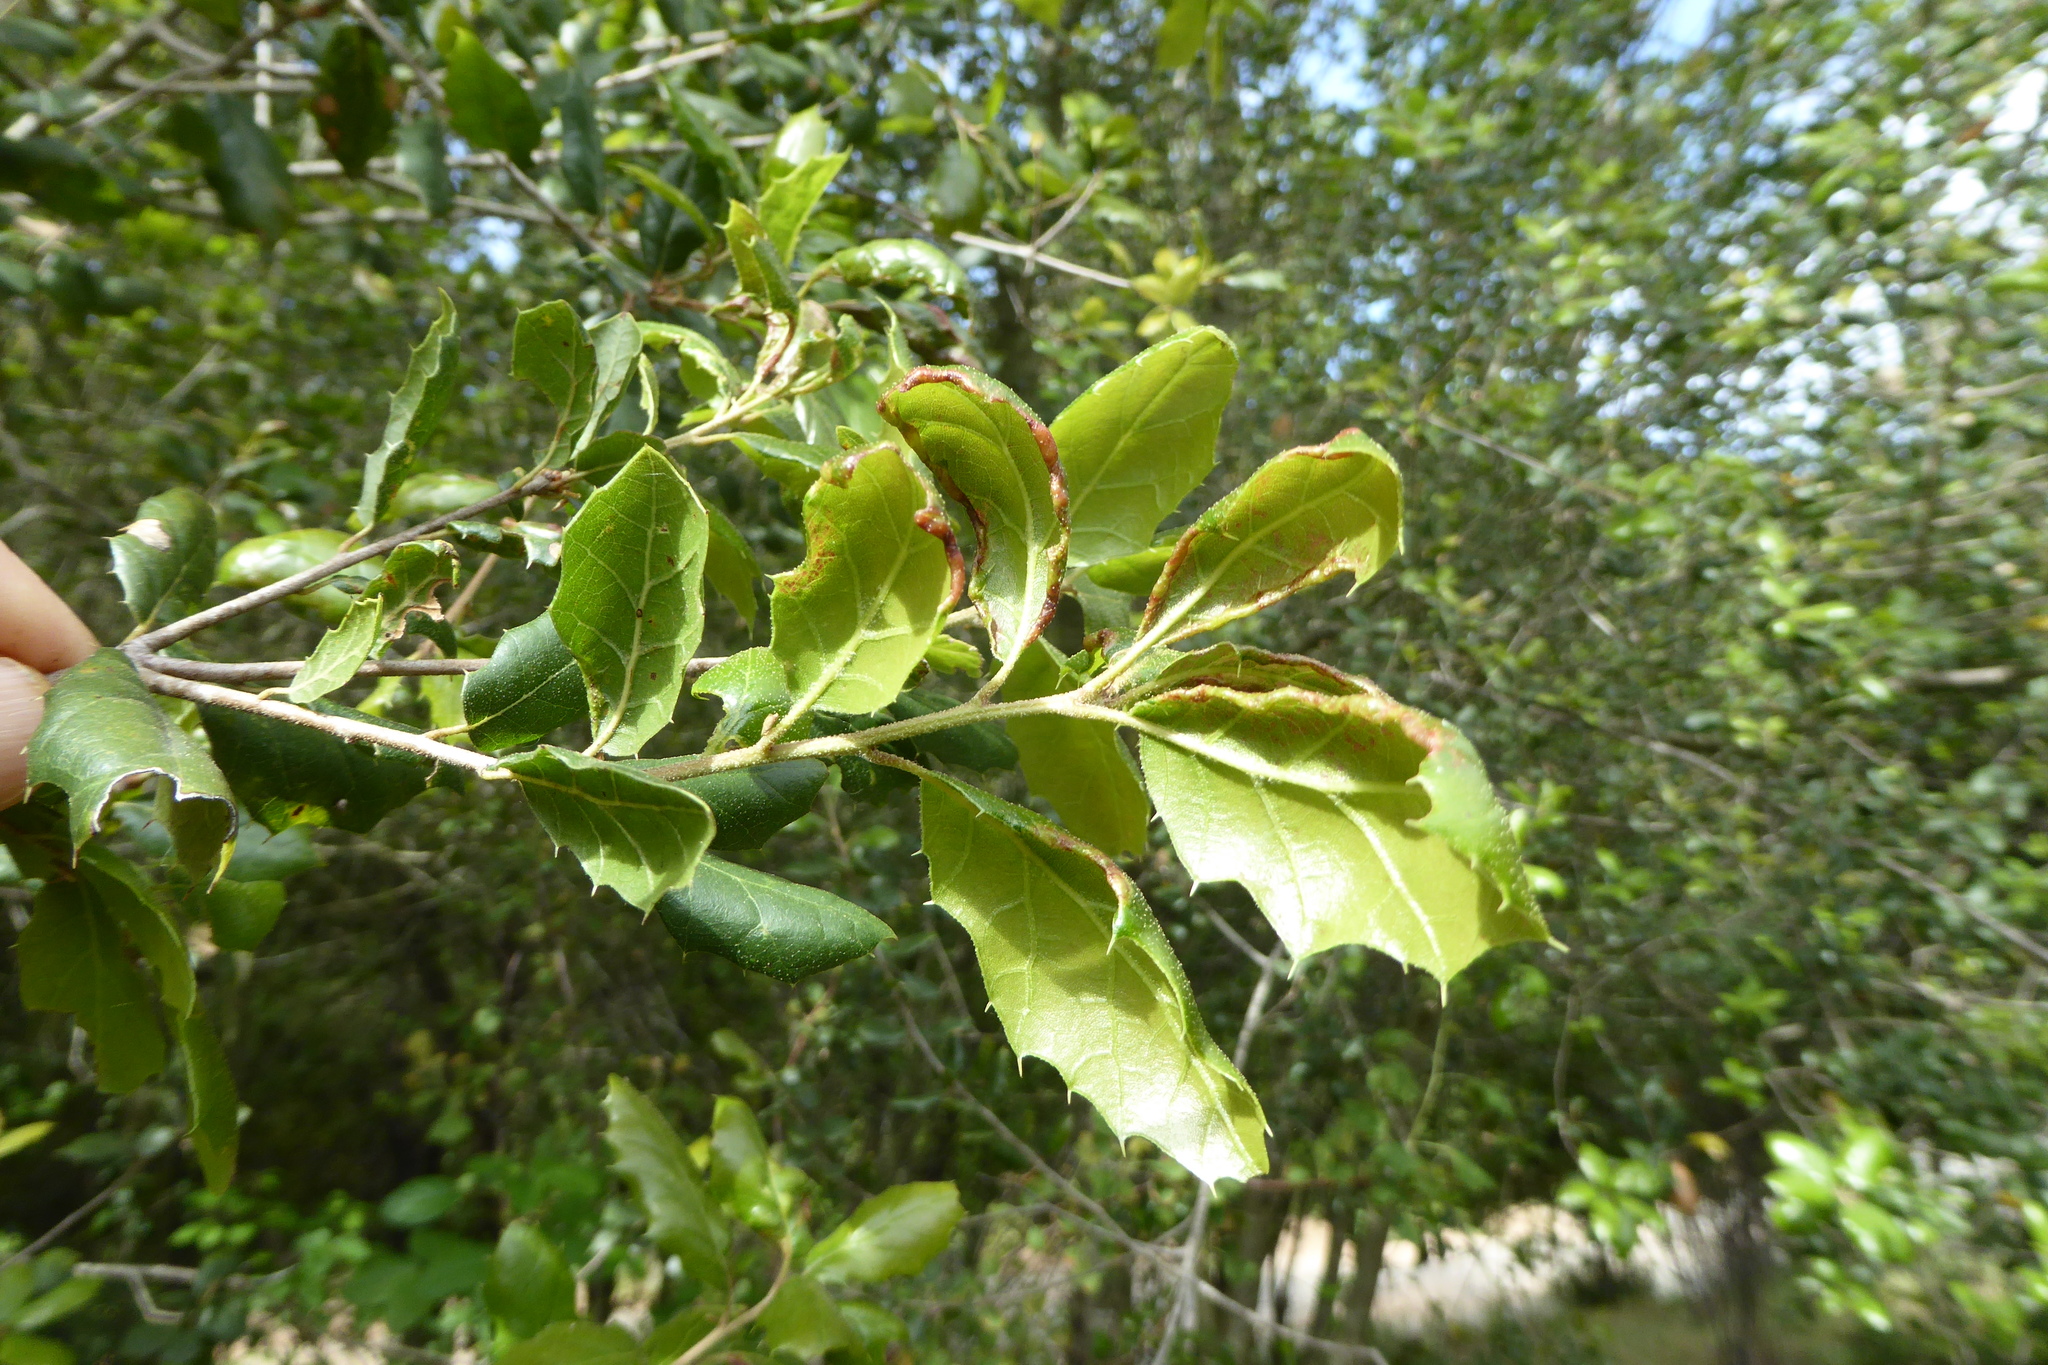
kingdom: Plantae
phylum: Tracheophyta
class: Magnoliopsida
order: Fagales
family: Fagaceae
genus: Quercus
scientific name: Quercus agrifolia
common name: California live oak
